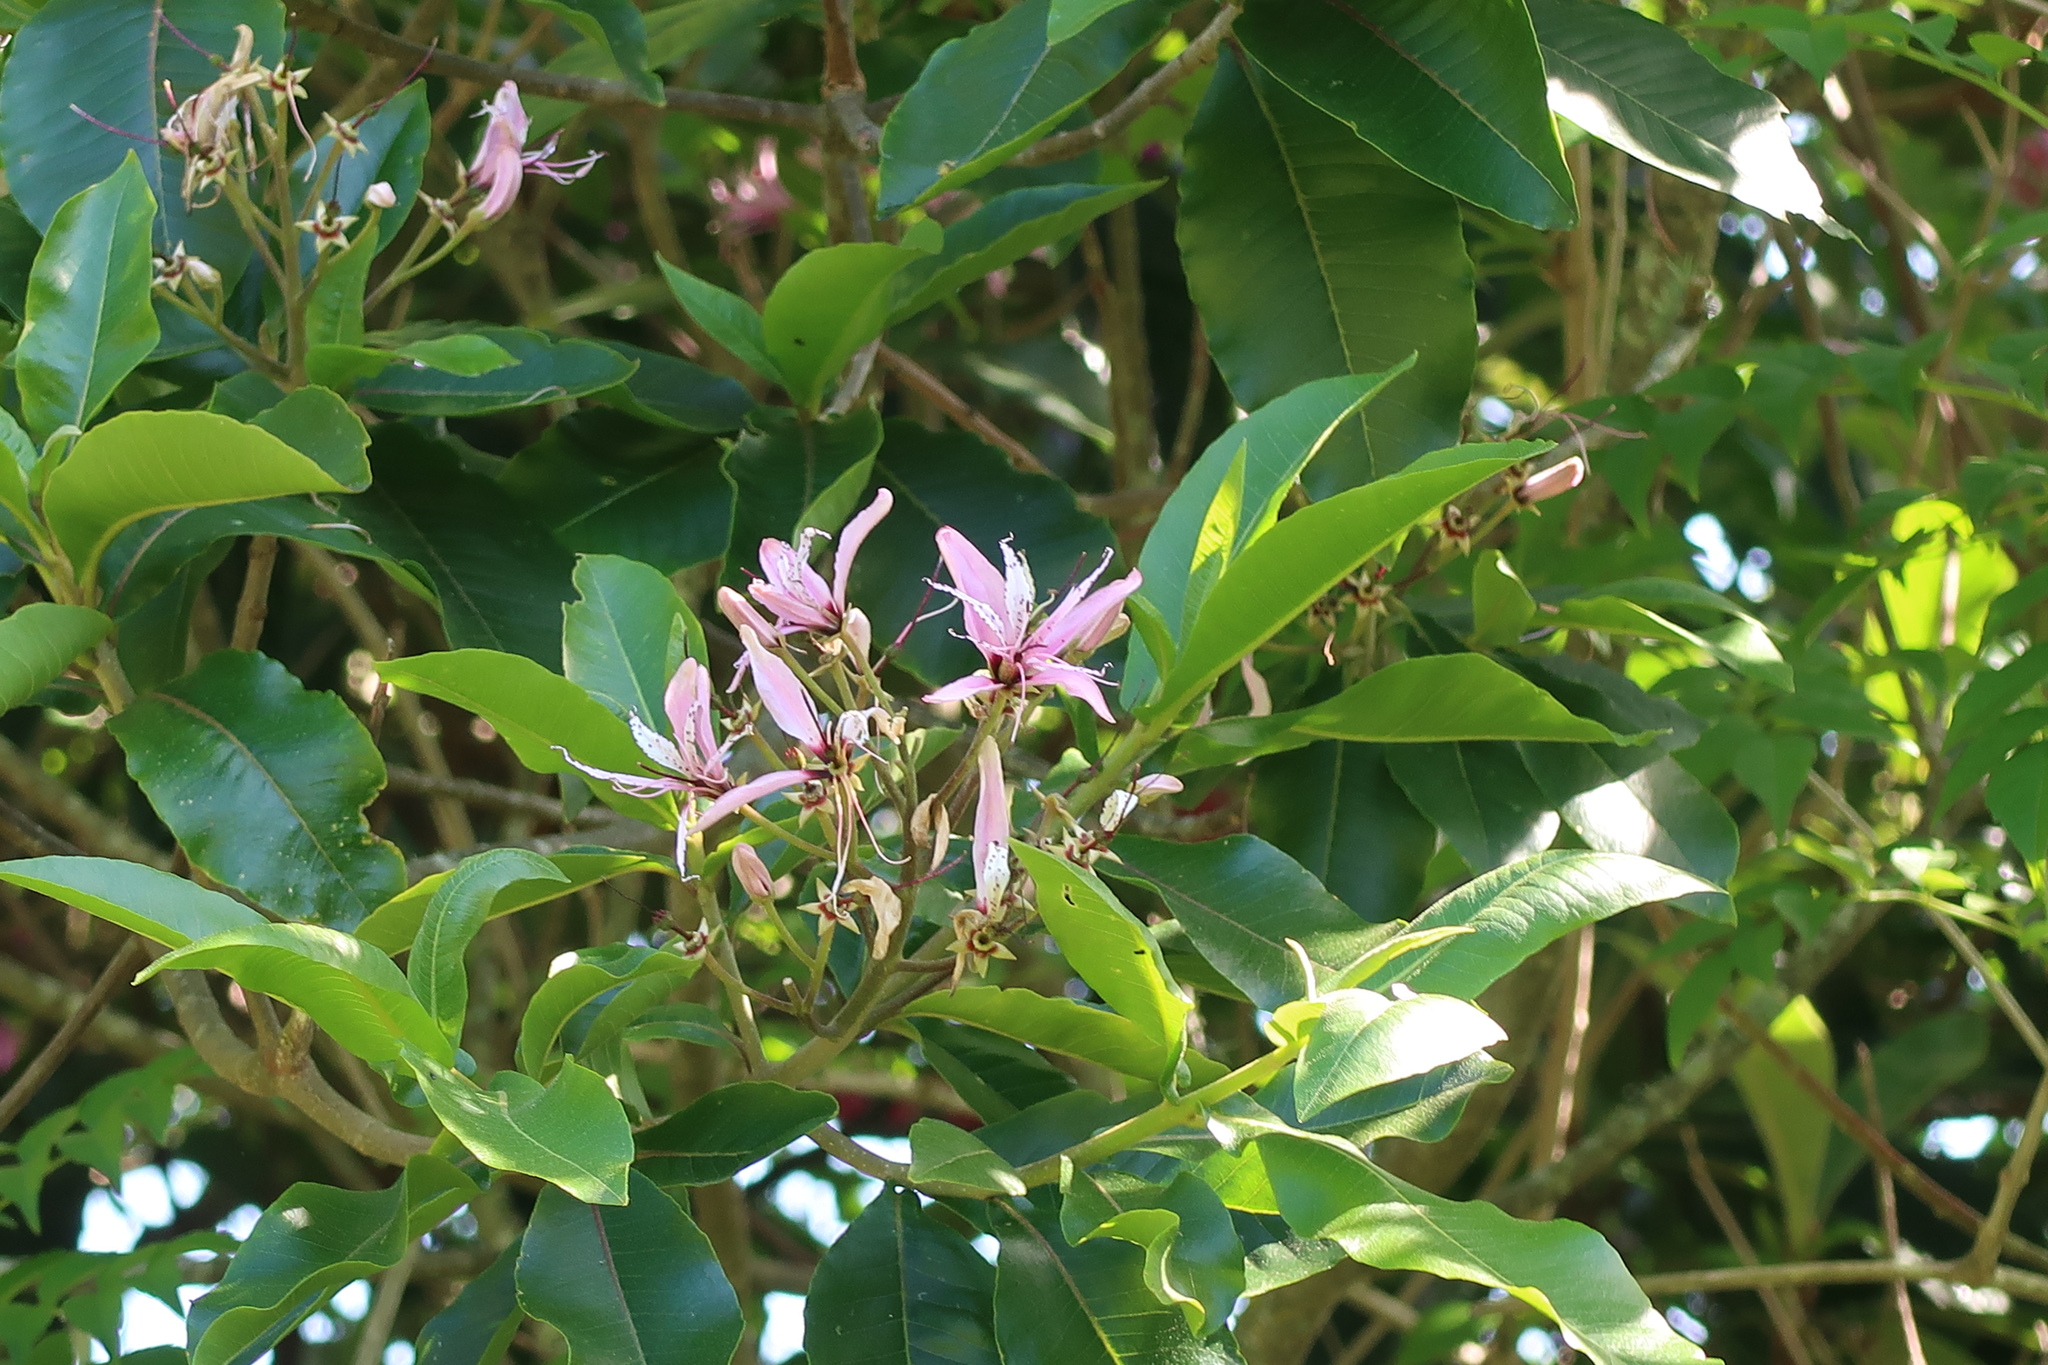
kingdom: Plantae
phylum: Tracheophyta
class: Magnoliopsida
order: Sapindales
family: Rutaceae
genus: Calodendrum
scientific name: Calodendrum capense
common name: Cape chestnut
